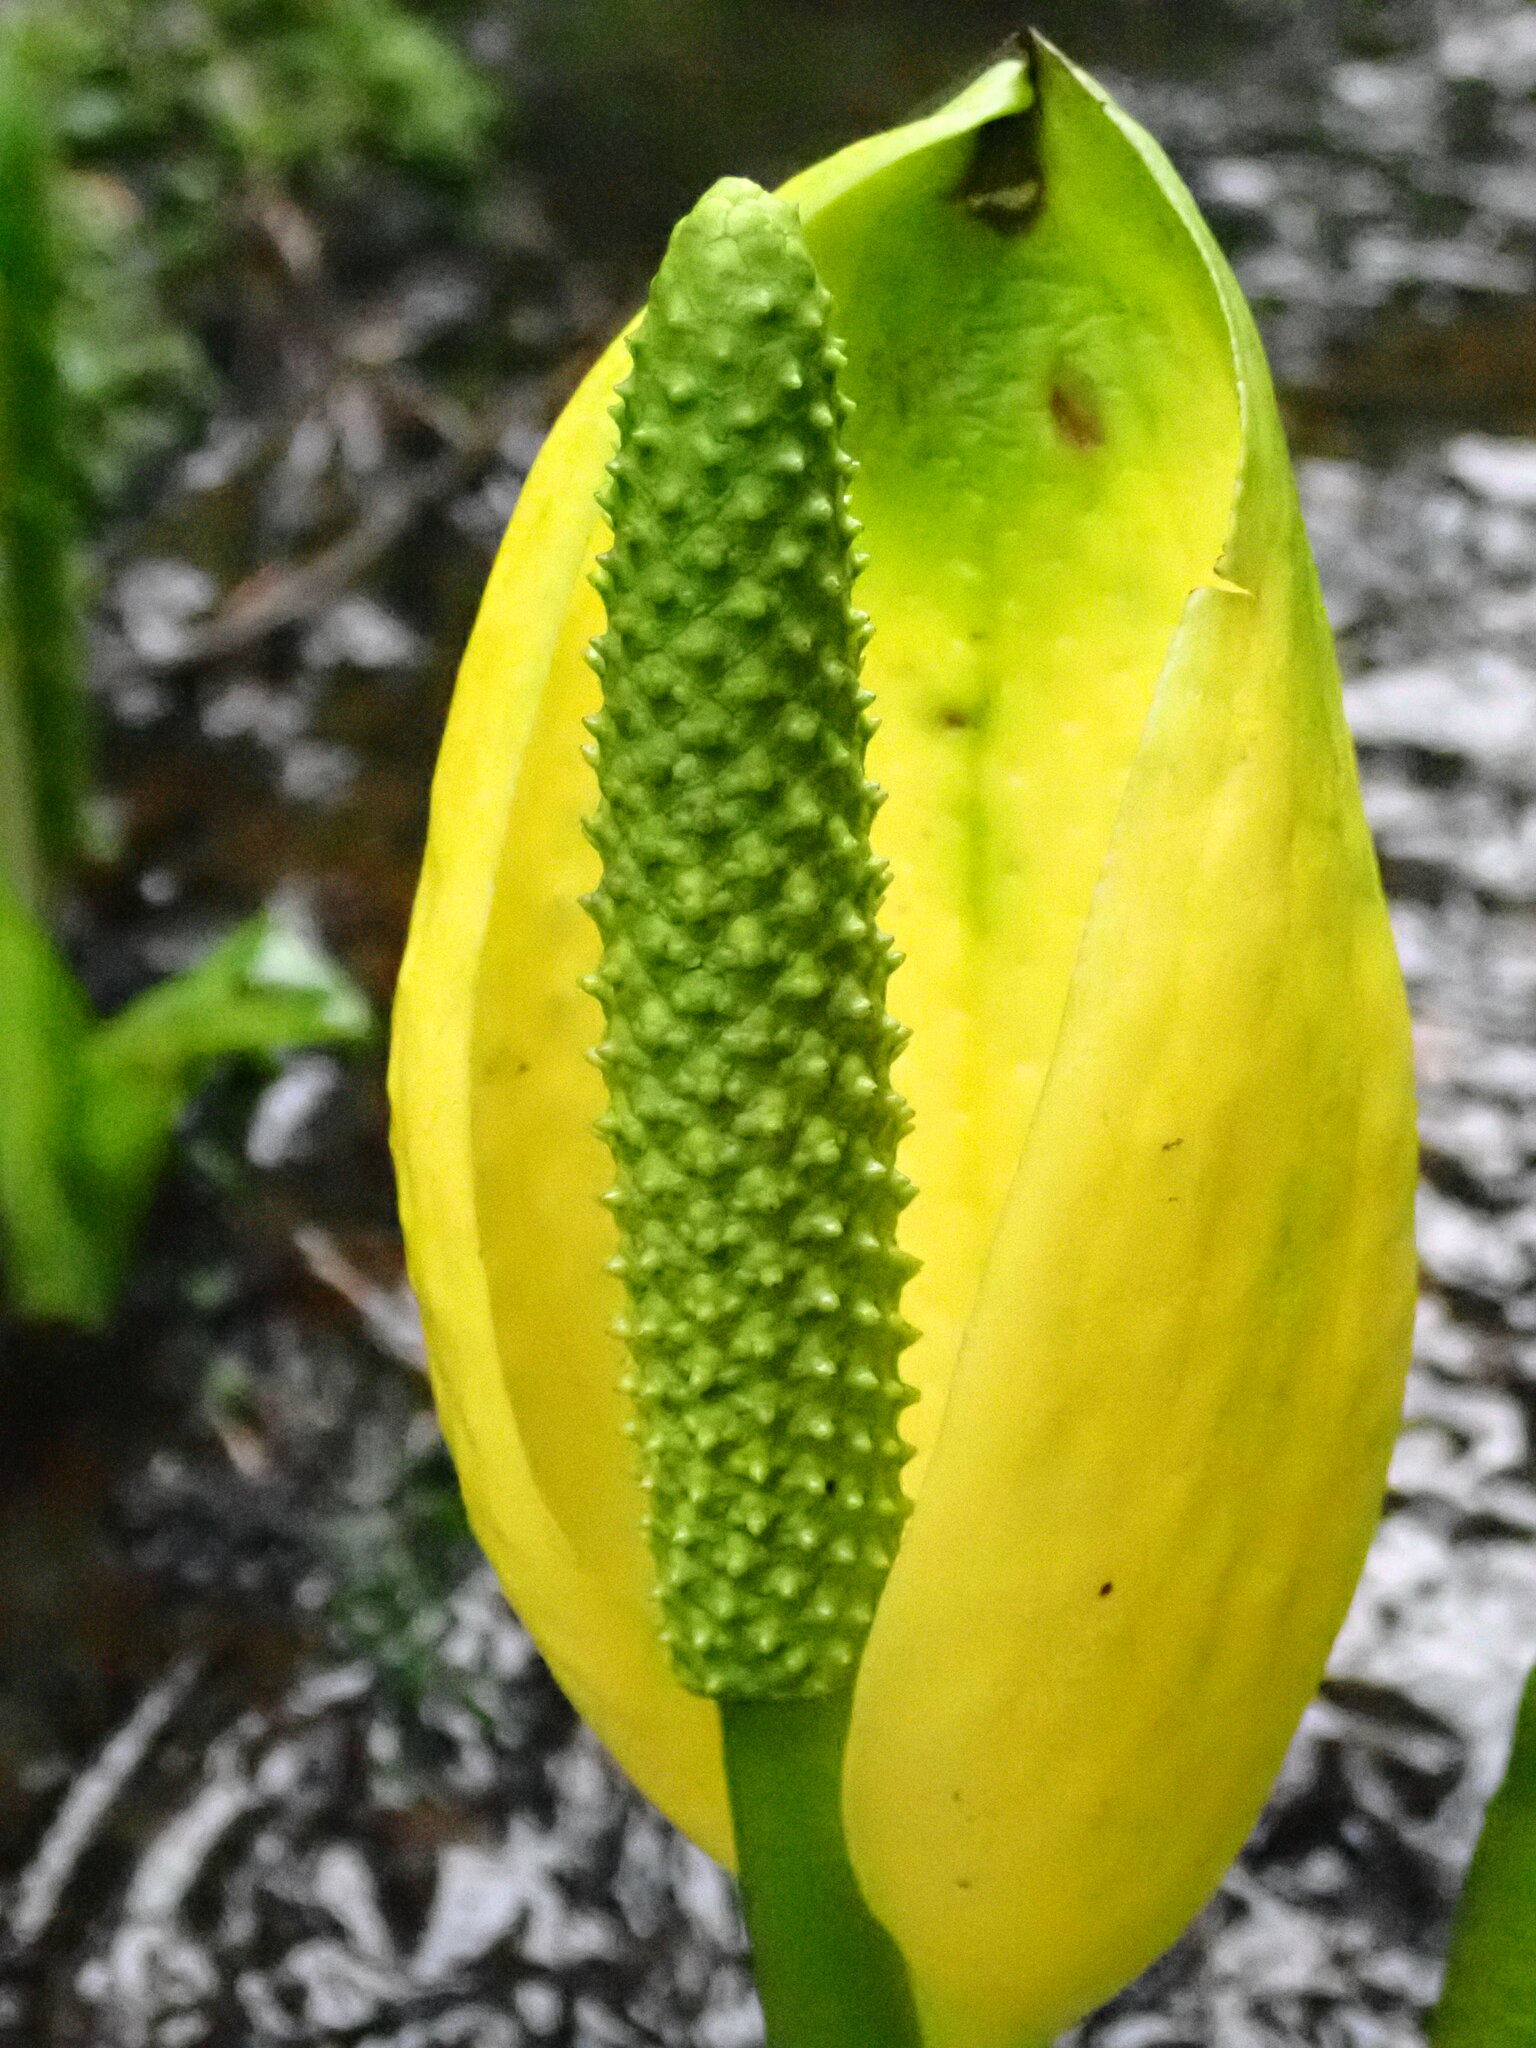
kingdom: Plantae
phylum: Tracheophyta
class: Liliopsida
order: Alismatales
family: Araceae
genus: Lysichiton
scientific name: Lysichiton americanus
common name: American skunk cabbage
